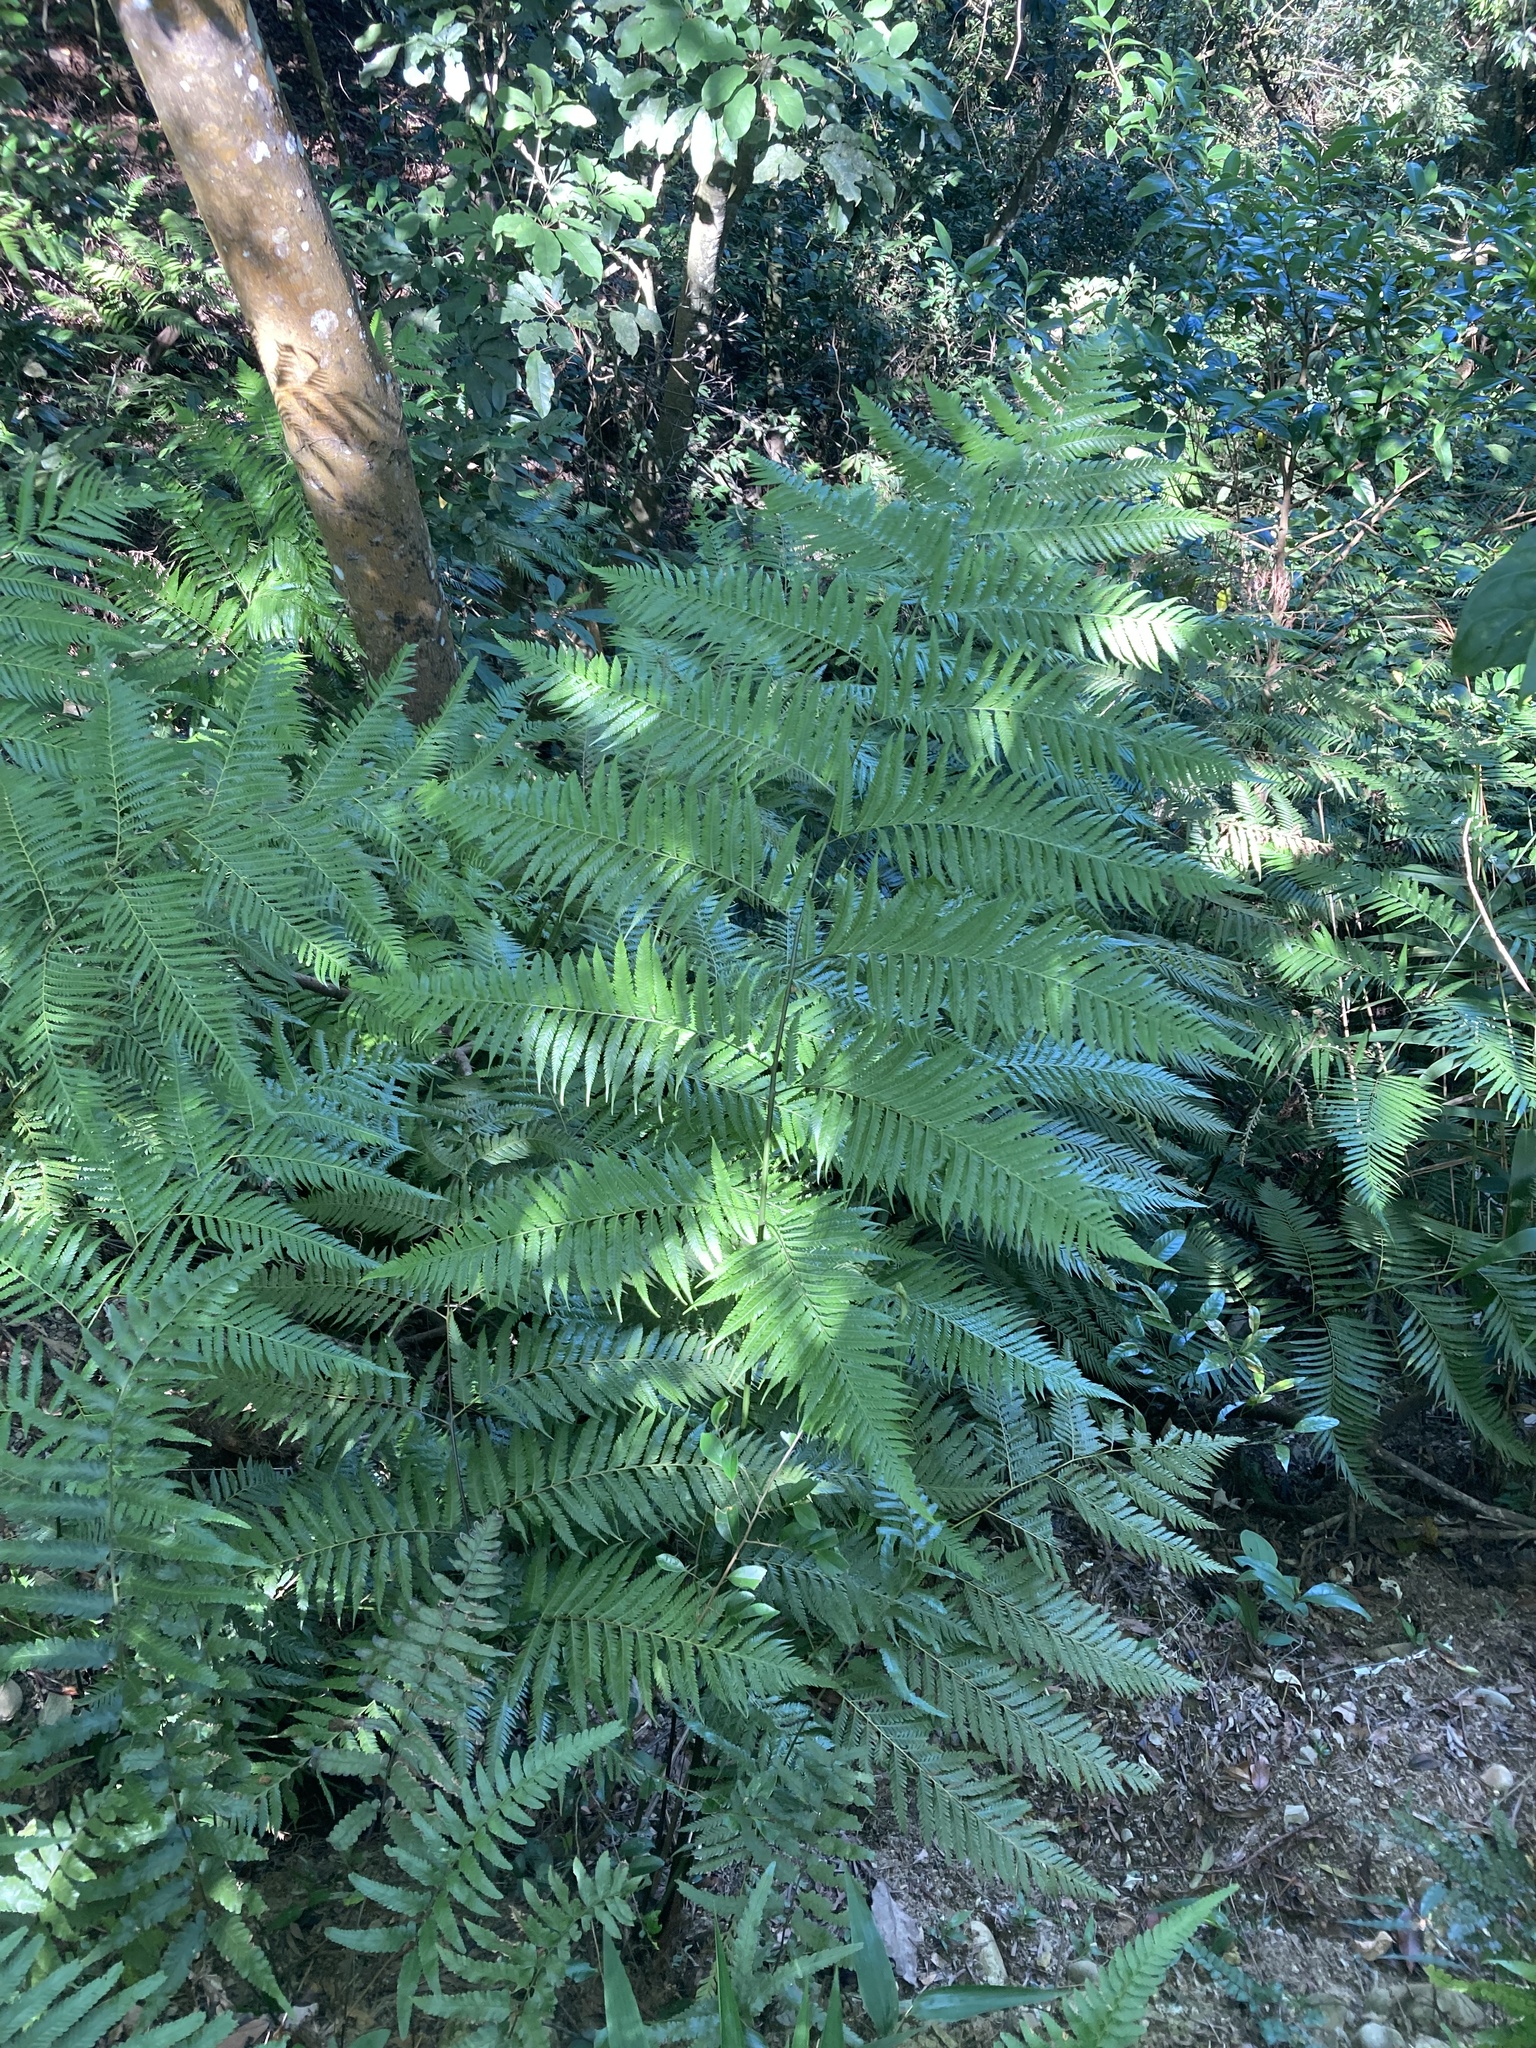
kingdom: Plantae
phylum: Tracheophyta
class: Polypodiopsida
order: Cyatheales
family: Cibotiaceae
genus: Cibotium
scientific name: Cibotium taiwanense
